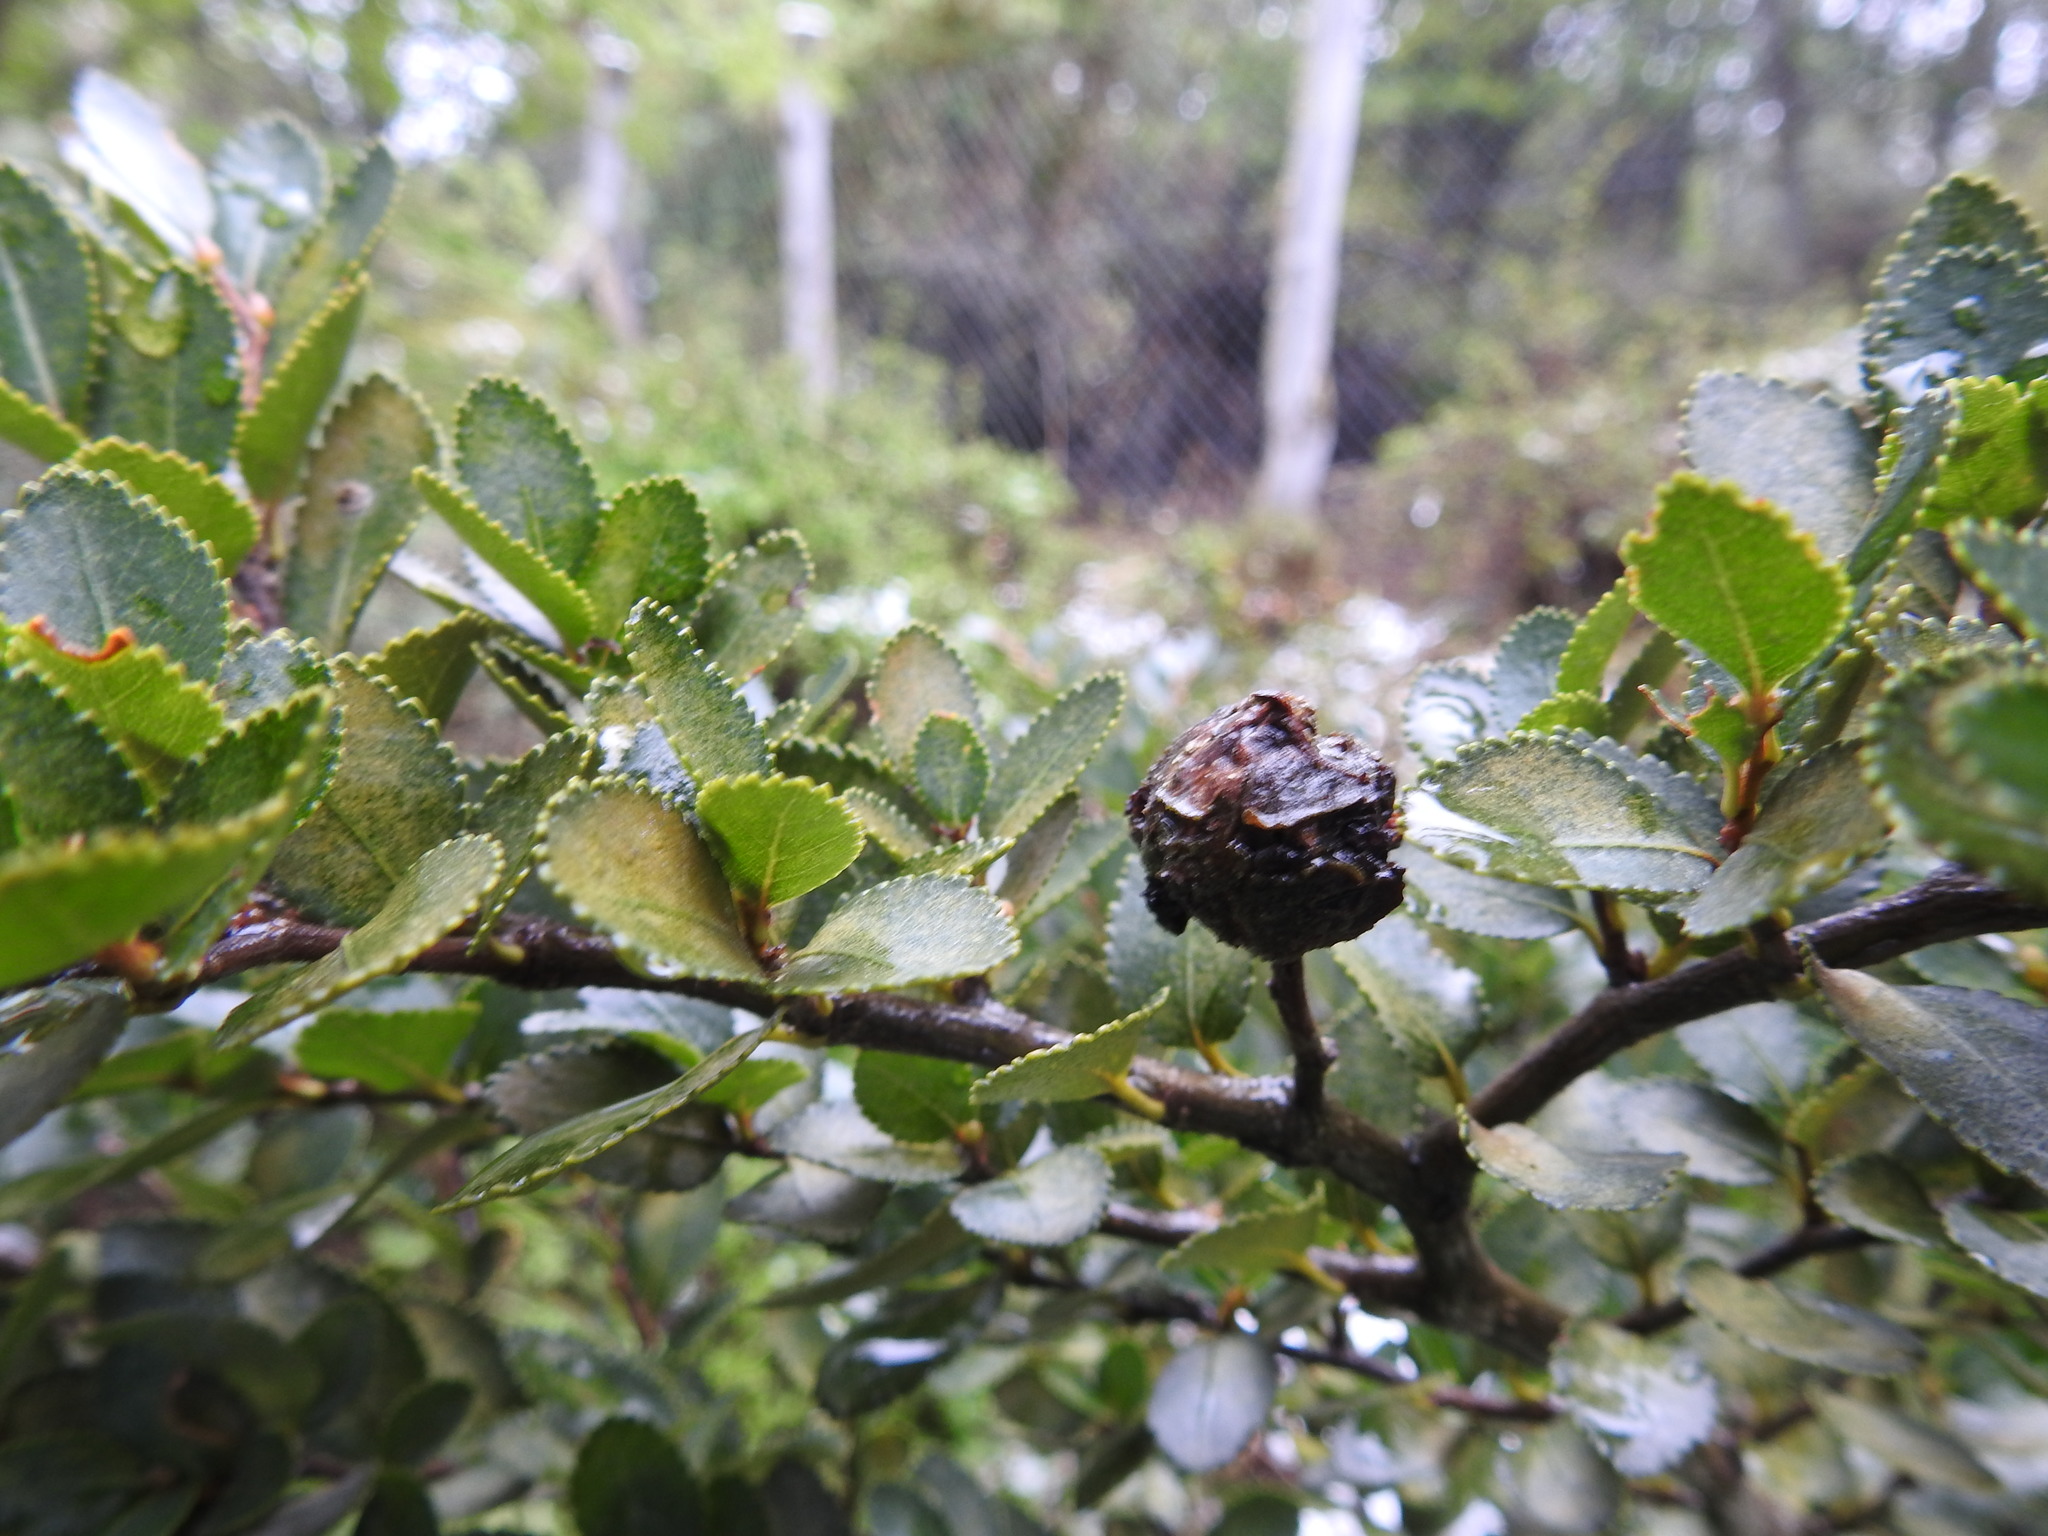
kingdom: Plantae
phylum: Tracheophyta
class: Magnoliopsida
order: Fagales
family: Nothofagaceae
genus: Nothofagus
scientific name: Nothofagus betuloides
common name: Magellan's beech
